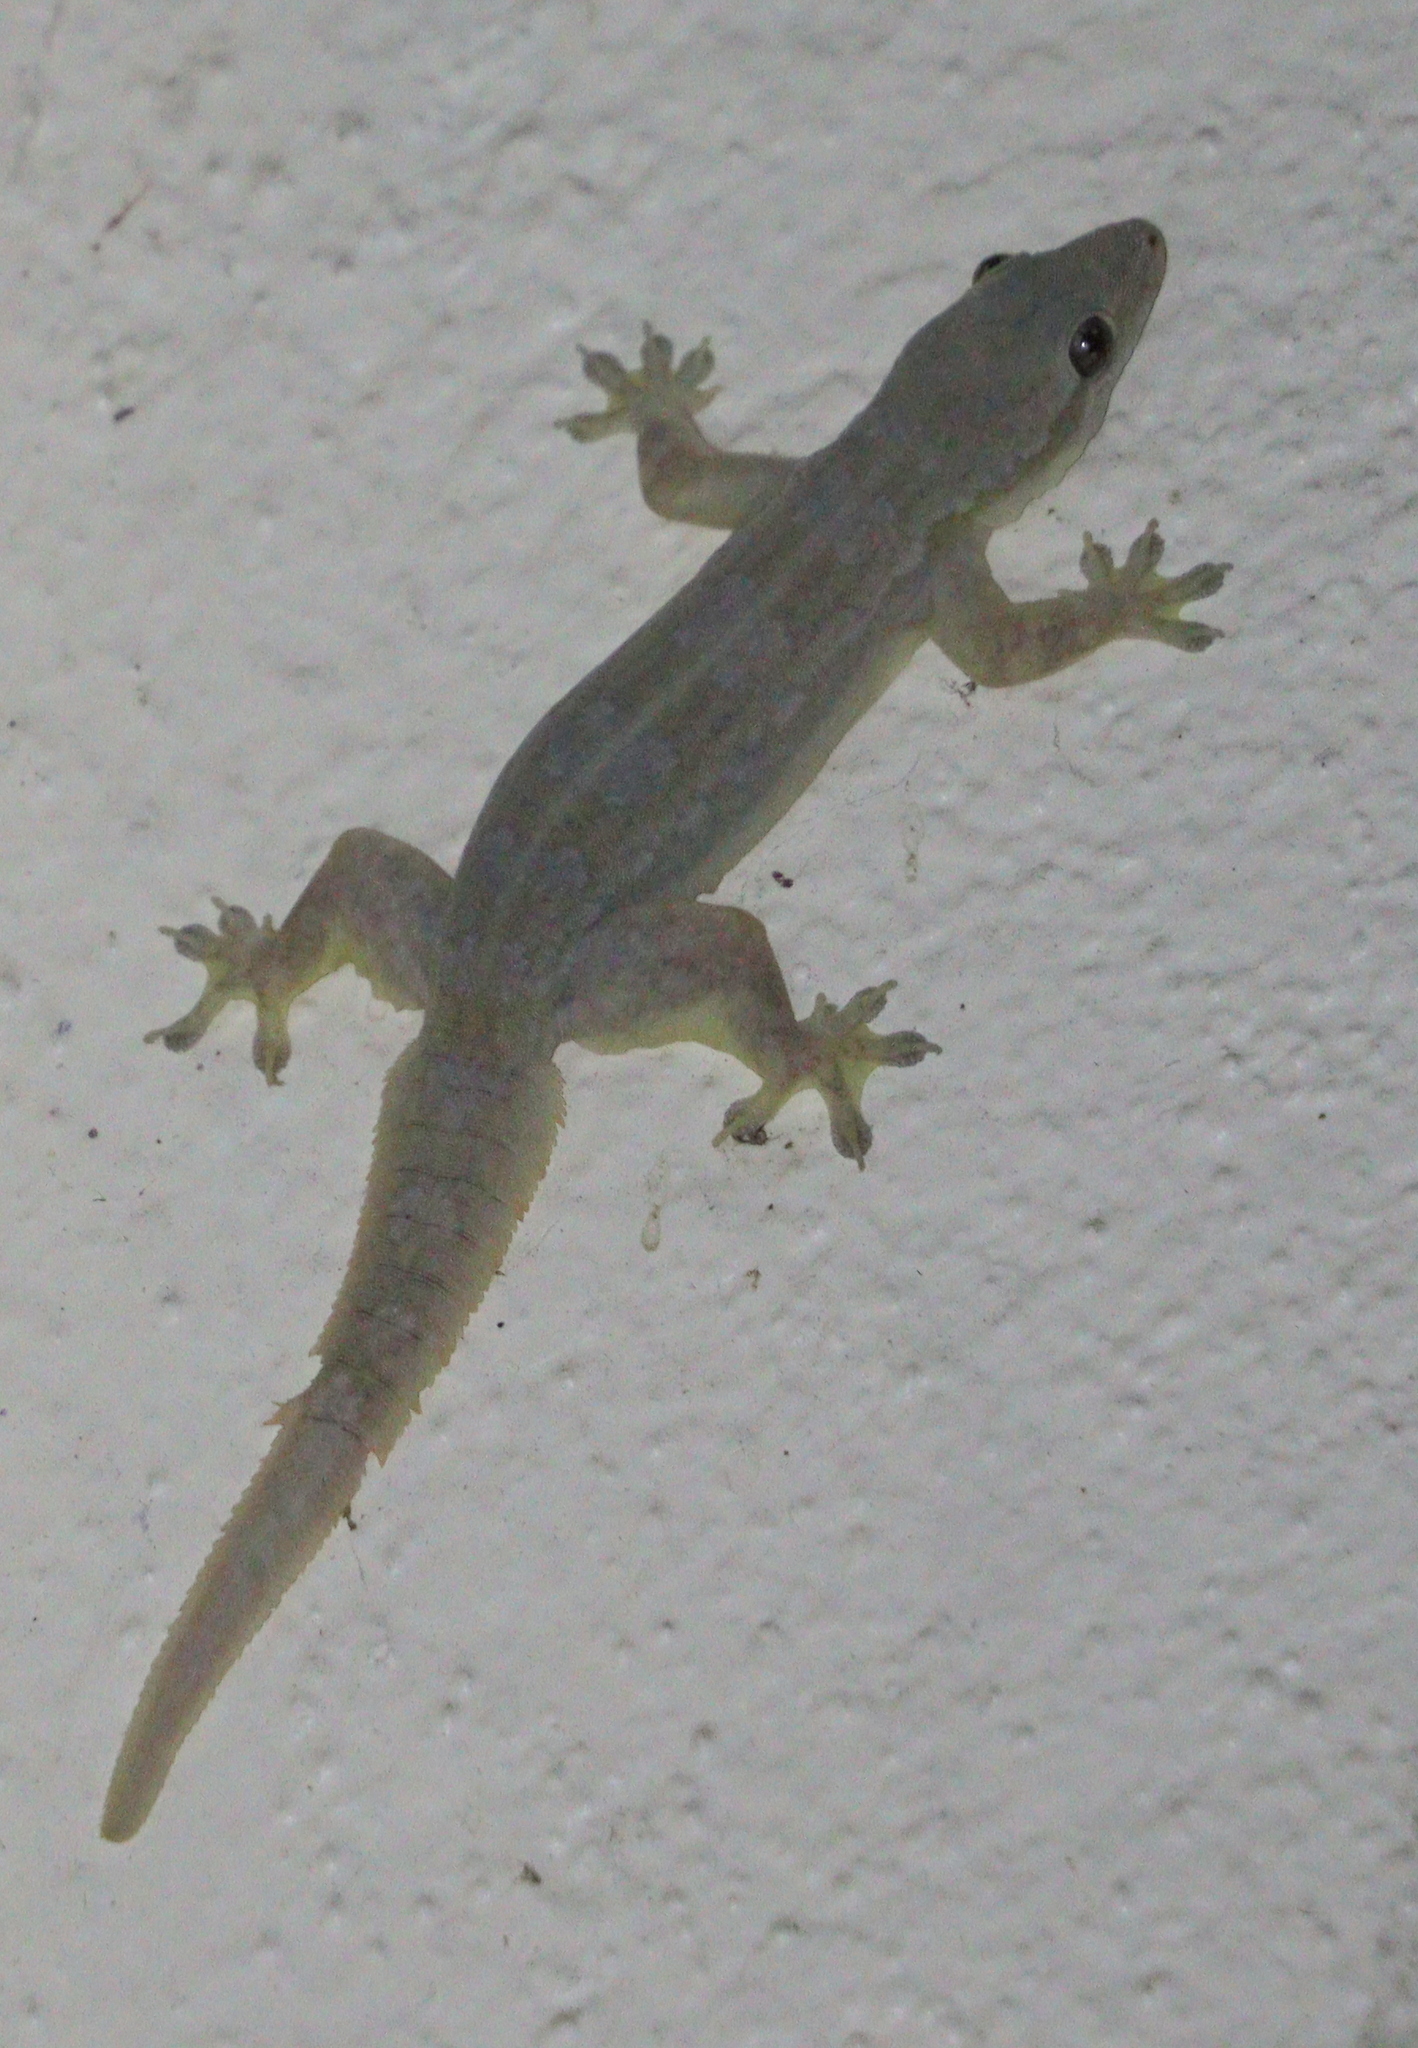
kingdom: Animalia
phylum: Chordata
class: Squamata
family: Gekkonidae
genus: Hemidactylus
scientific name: Hemidactylus platyurus
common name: Flat-tailed house gecko
